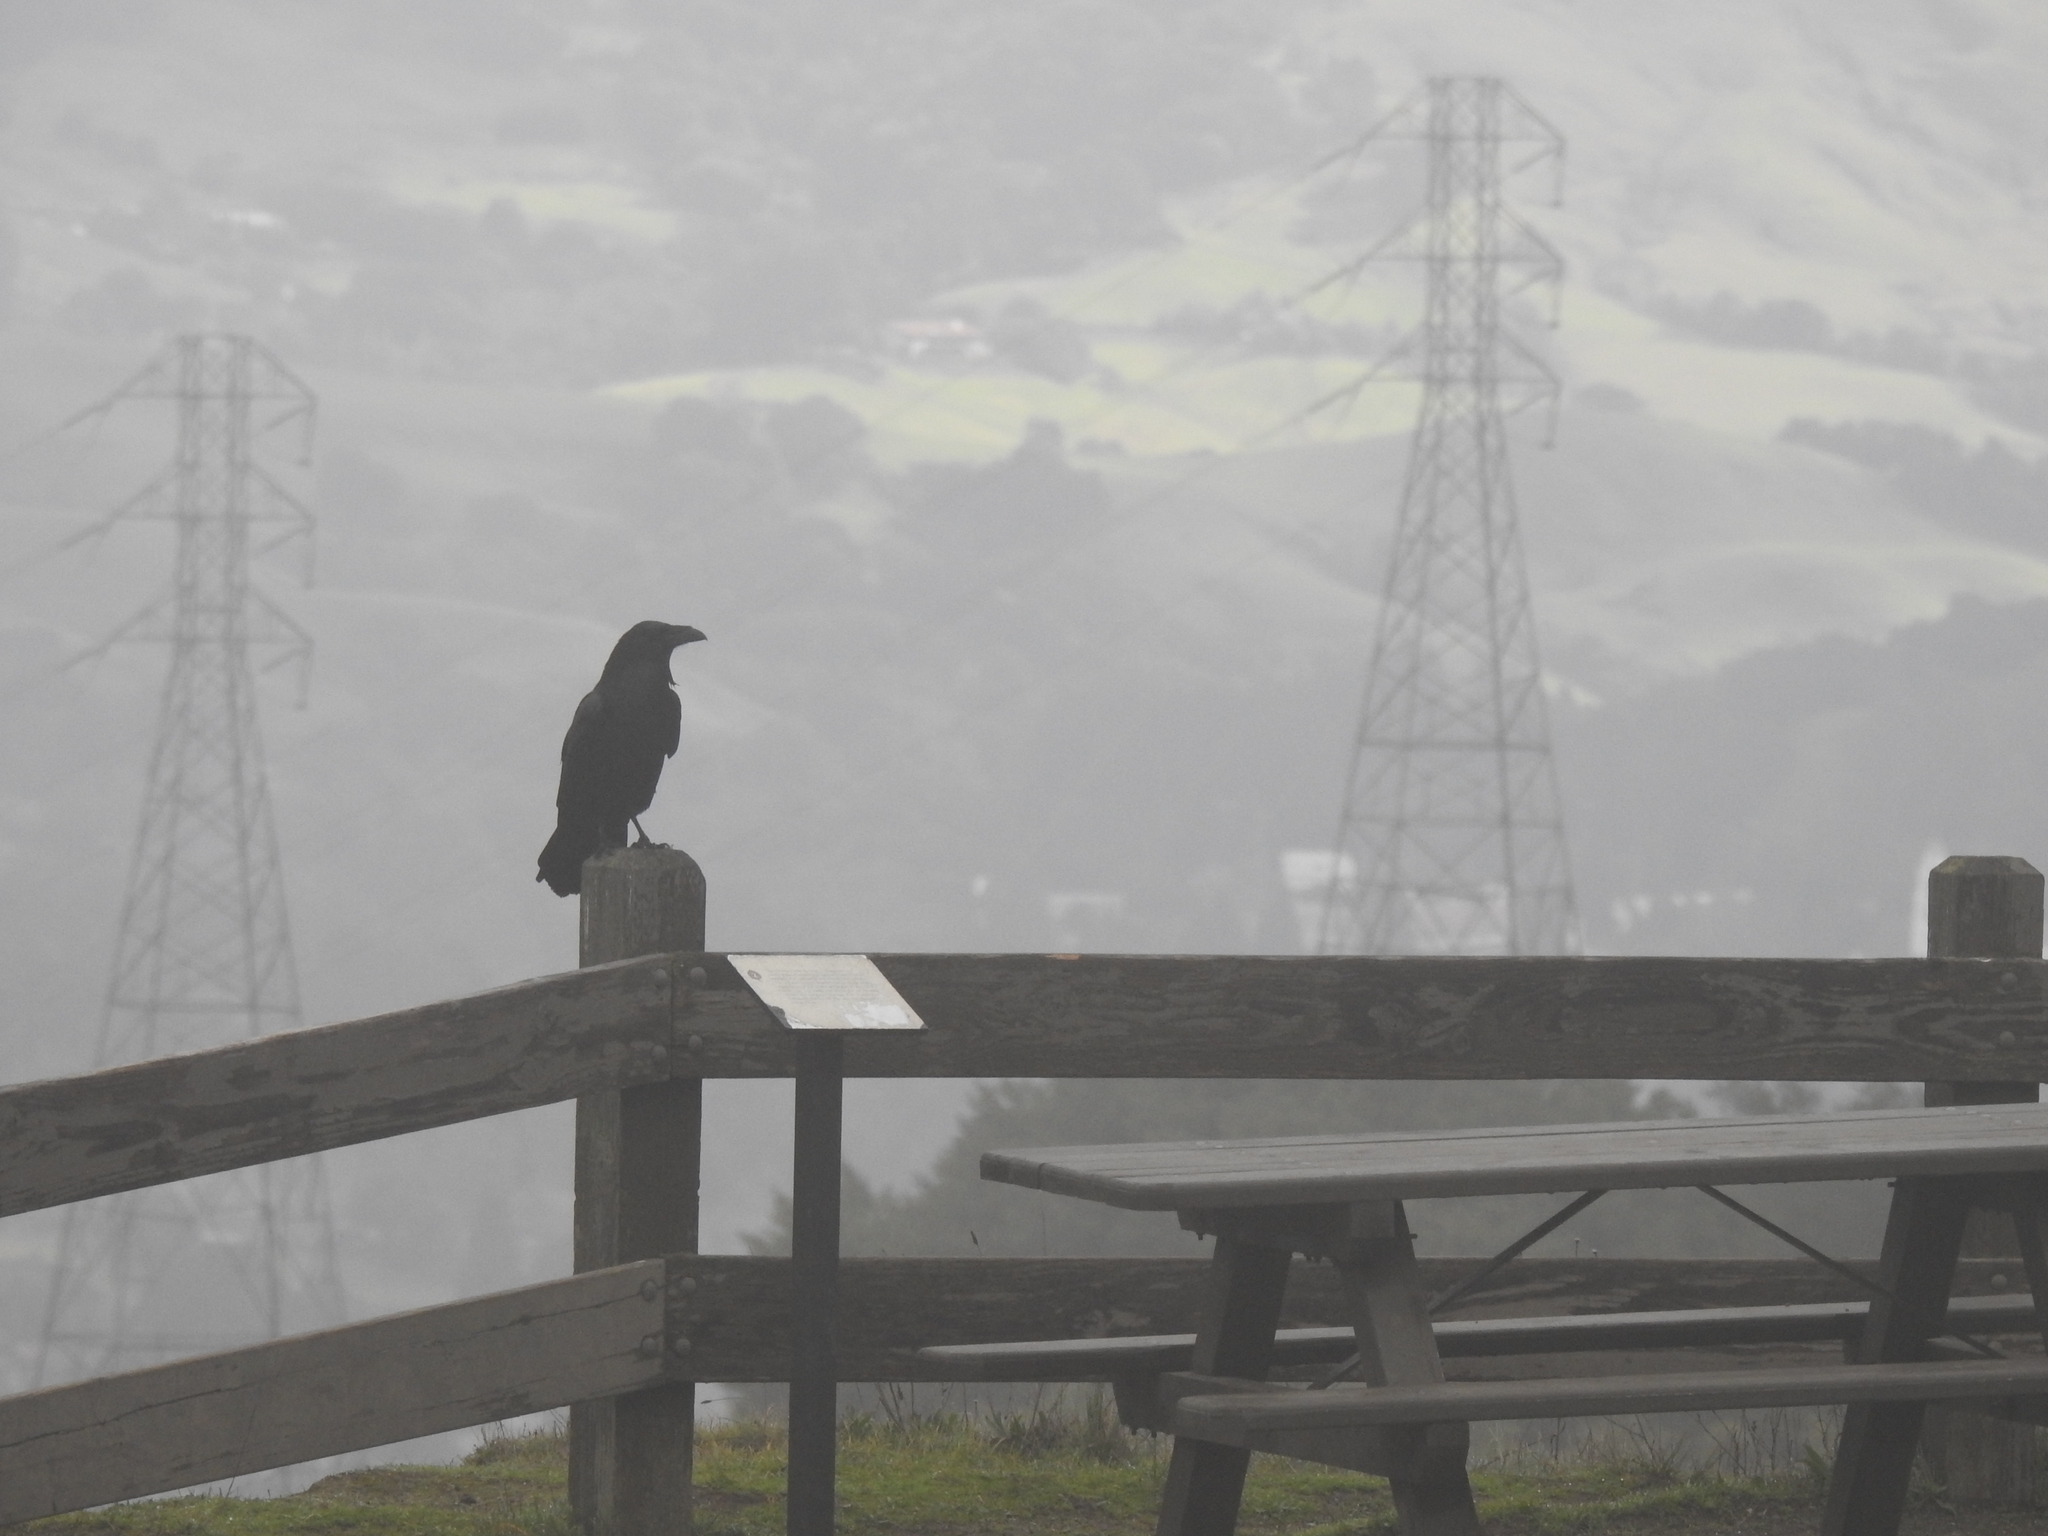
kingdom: Animalia
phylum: Chordata
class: Aves
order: Passeriformes
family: Corvidae
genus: Corvus
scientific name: Corvus brachyrhynchos
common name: American crow
